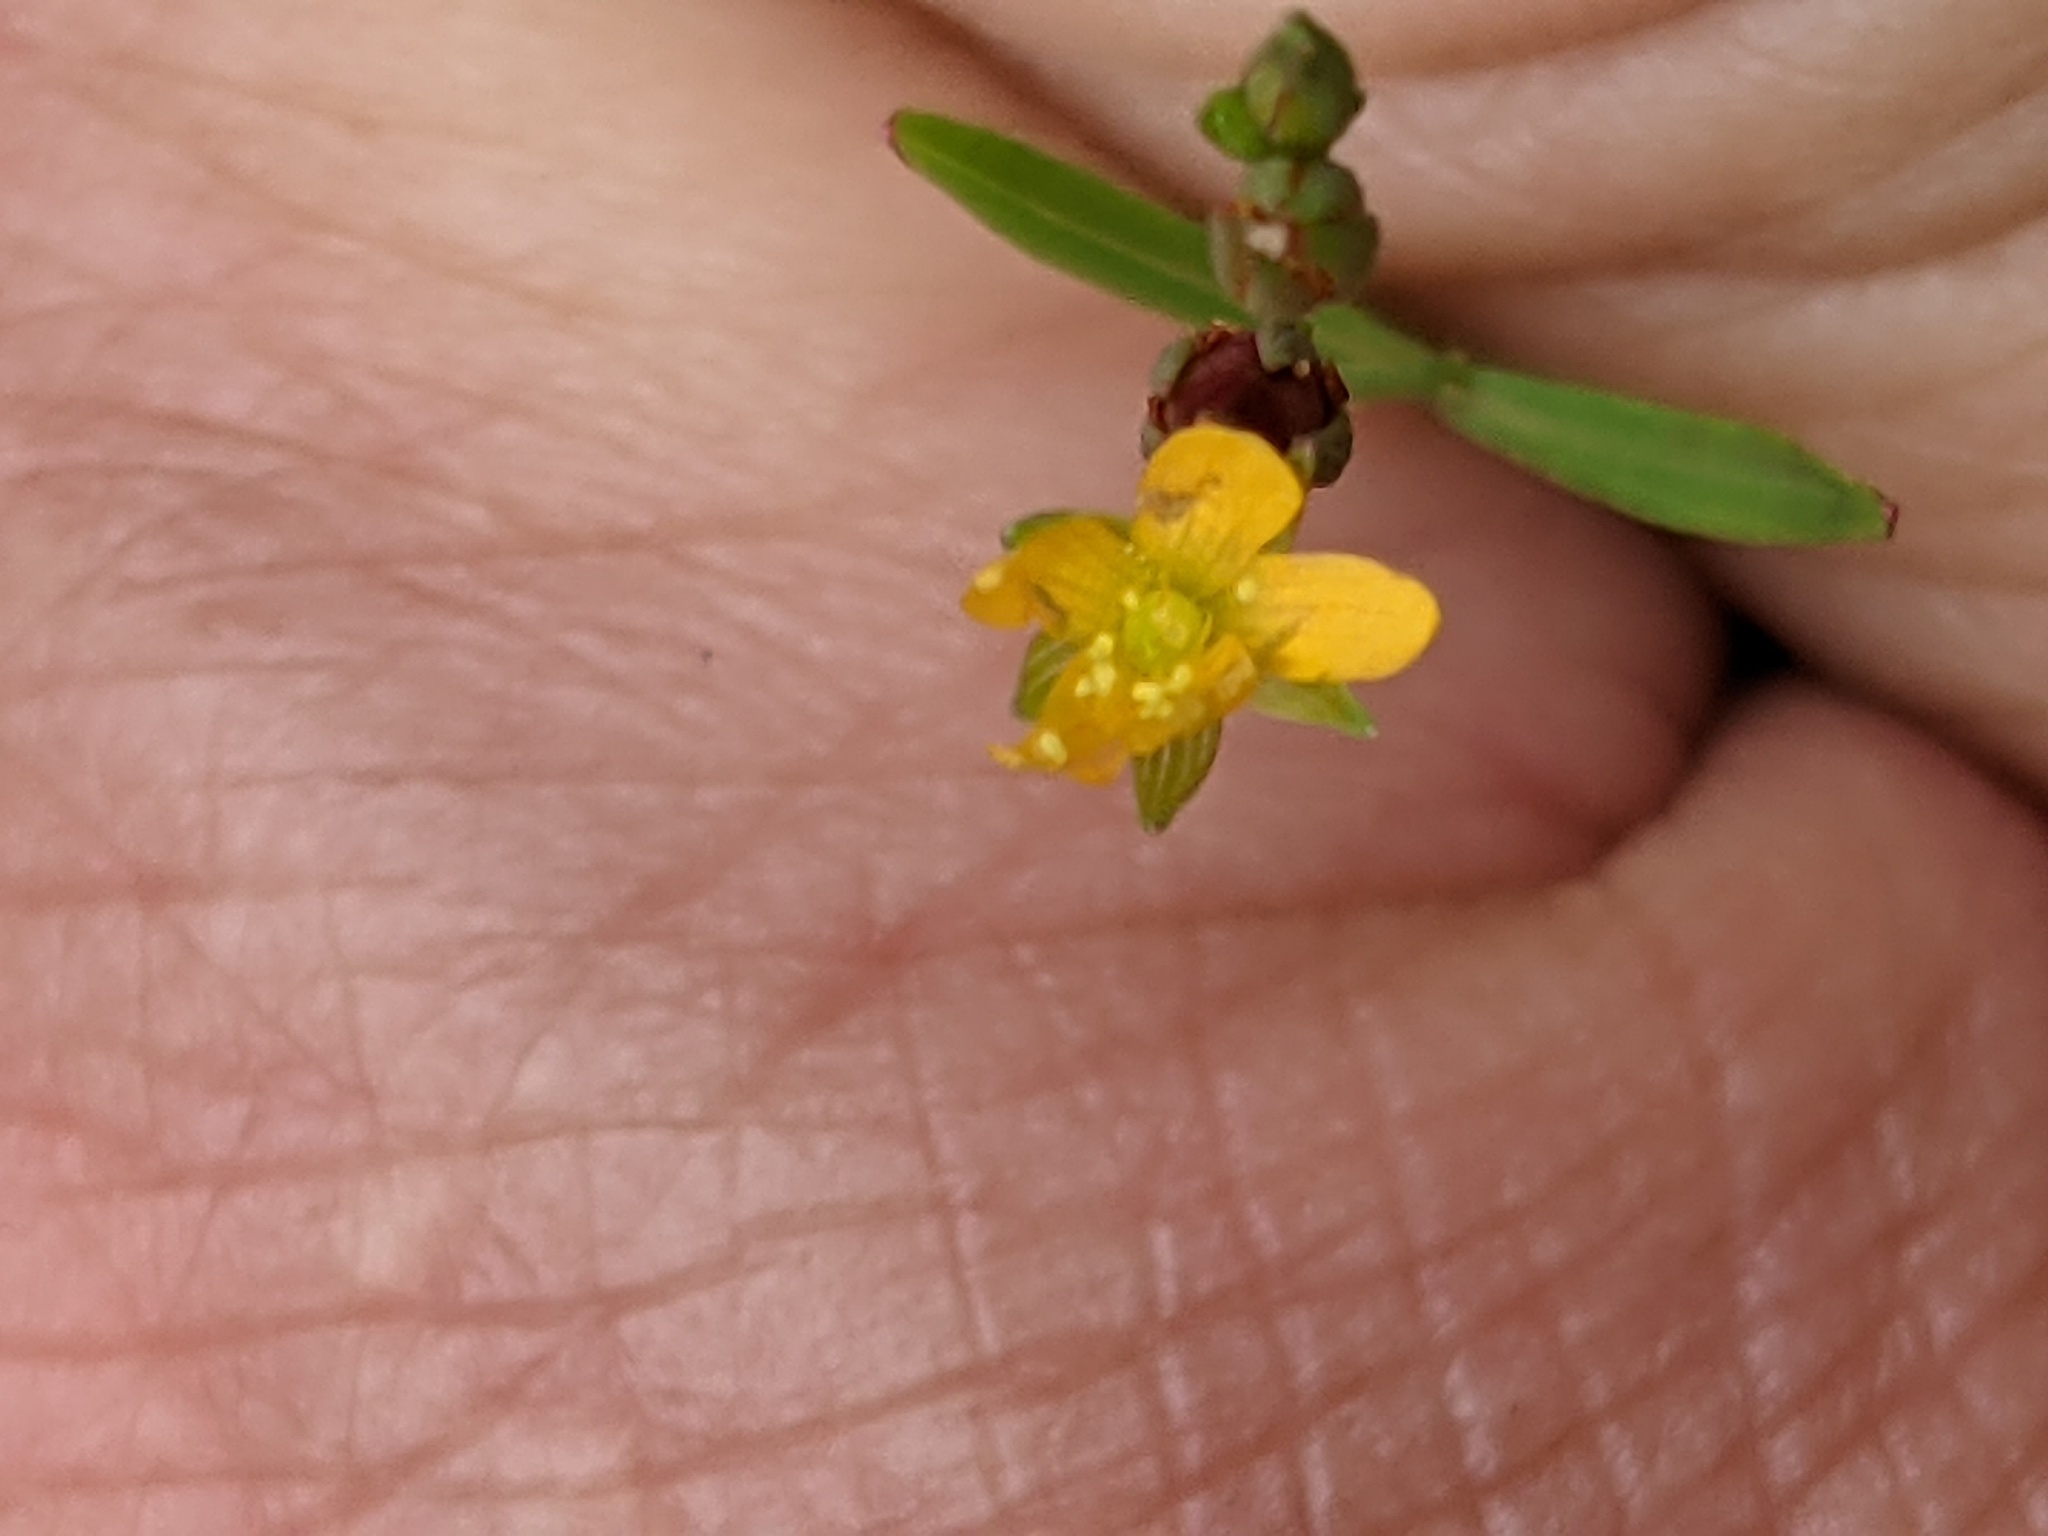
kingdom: Plantae
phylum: Tracheophyta
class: Magnoliopsida
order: Malpighiales
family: Hypericaceae
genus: Hypericum
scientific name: Hypericum canadense
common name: Irish st. john's-wort
